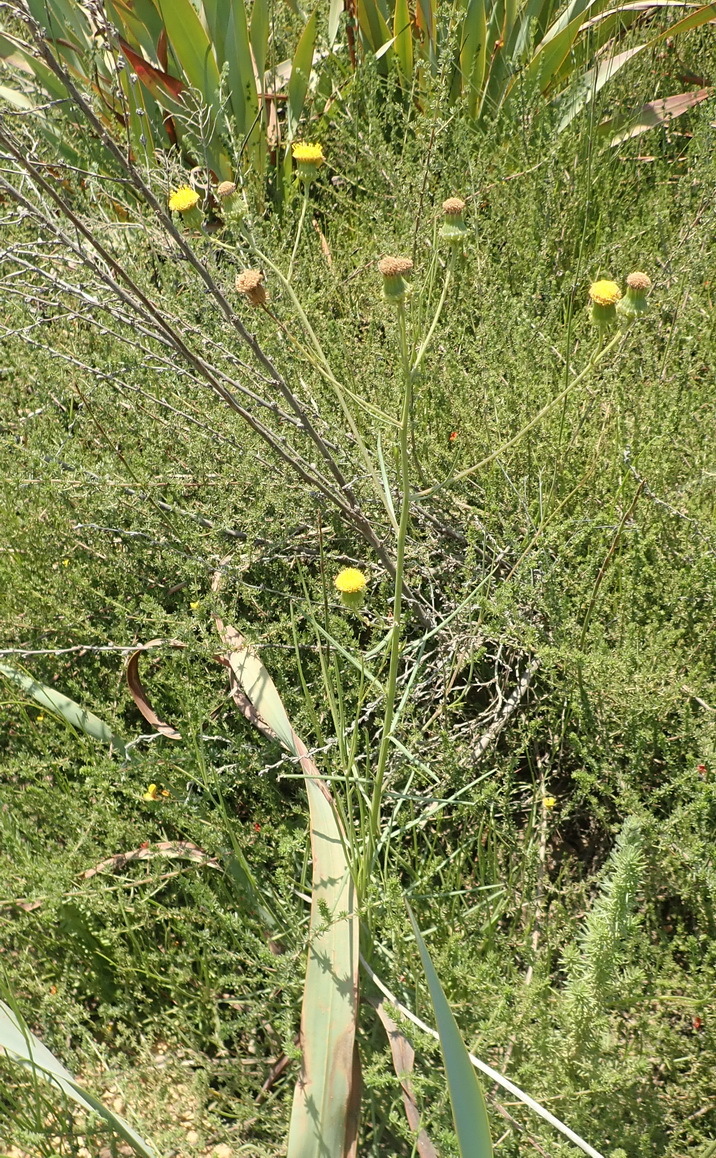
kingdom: Plantae
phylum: Tracheophyta
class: Magnoliopsida
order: Asterales
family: Asteraceae
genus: Senecio
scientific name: Senecio chrysocoma
